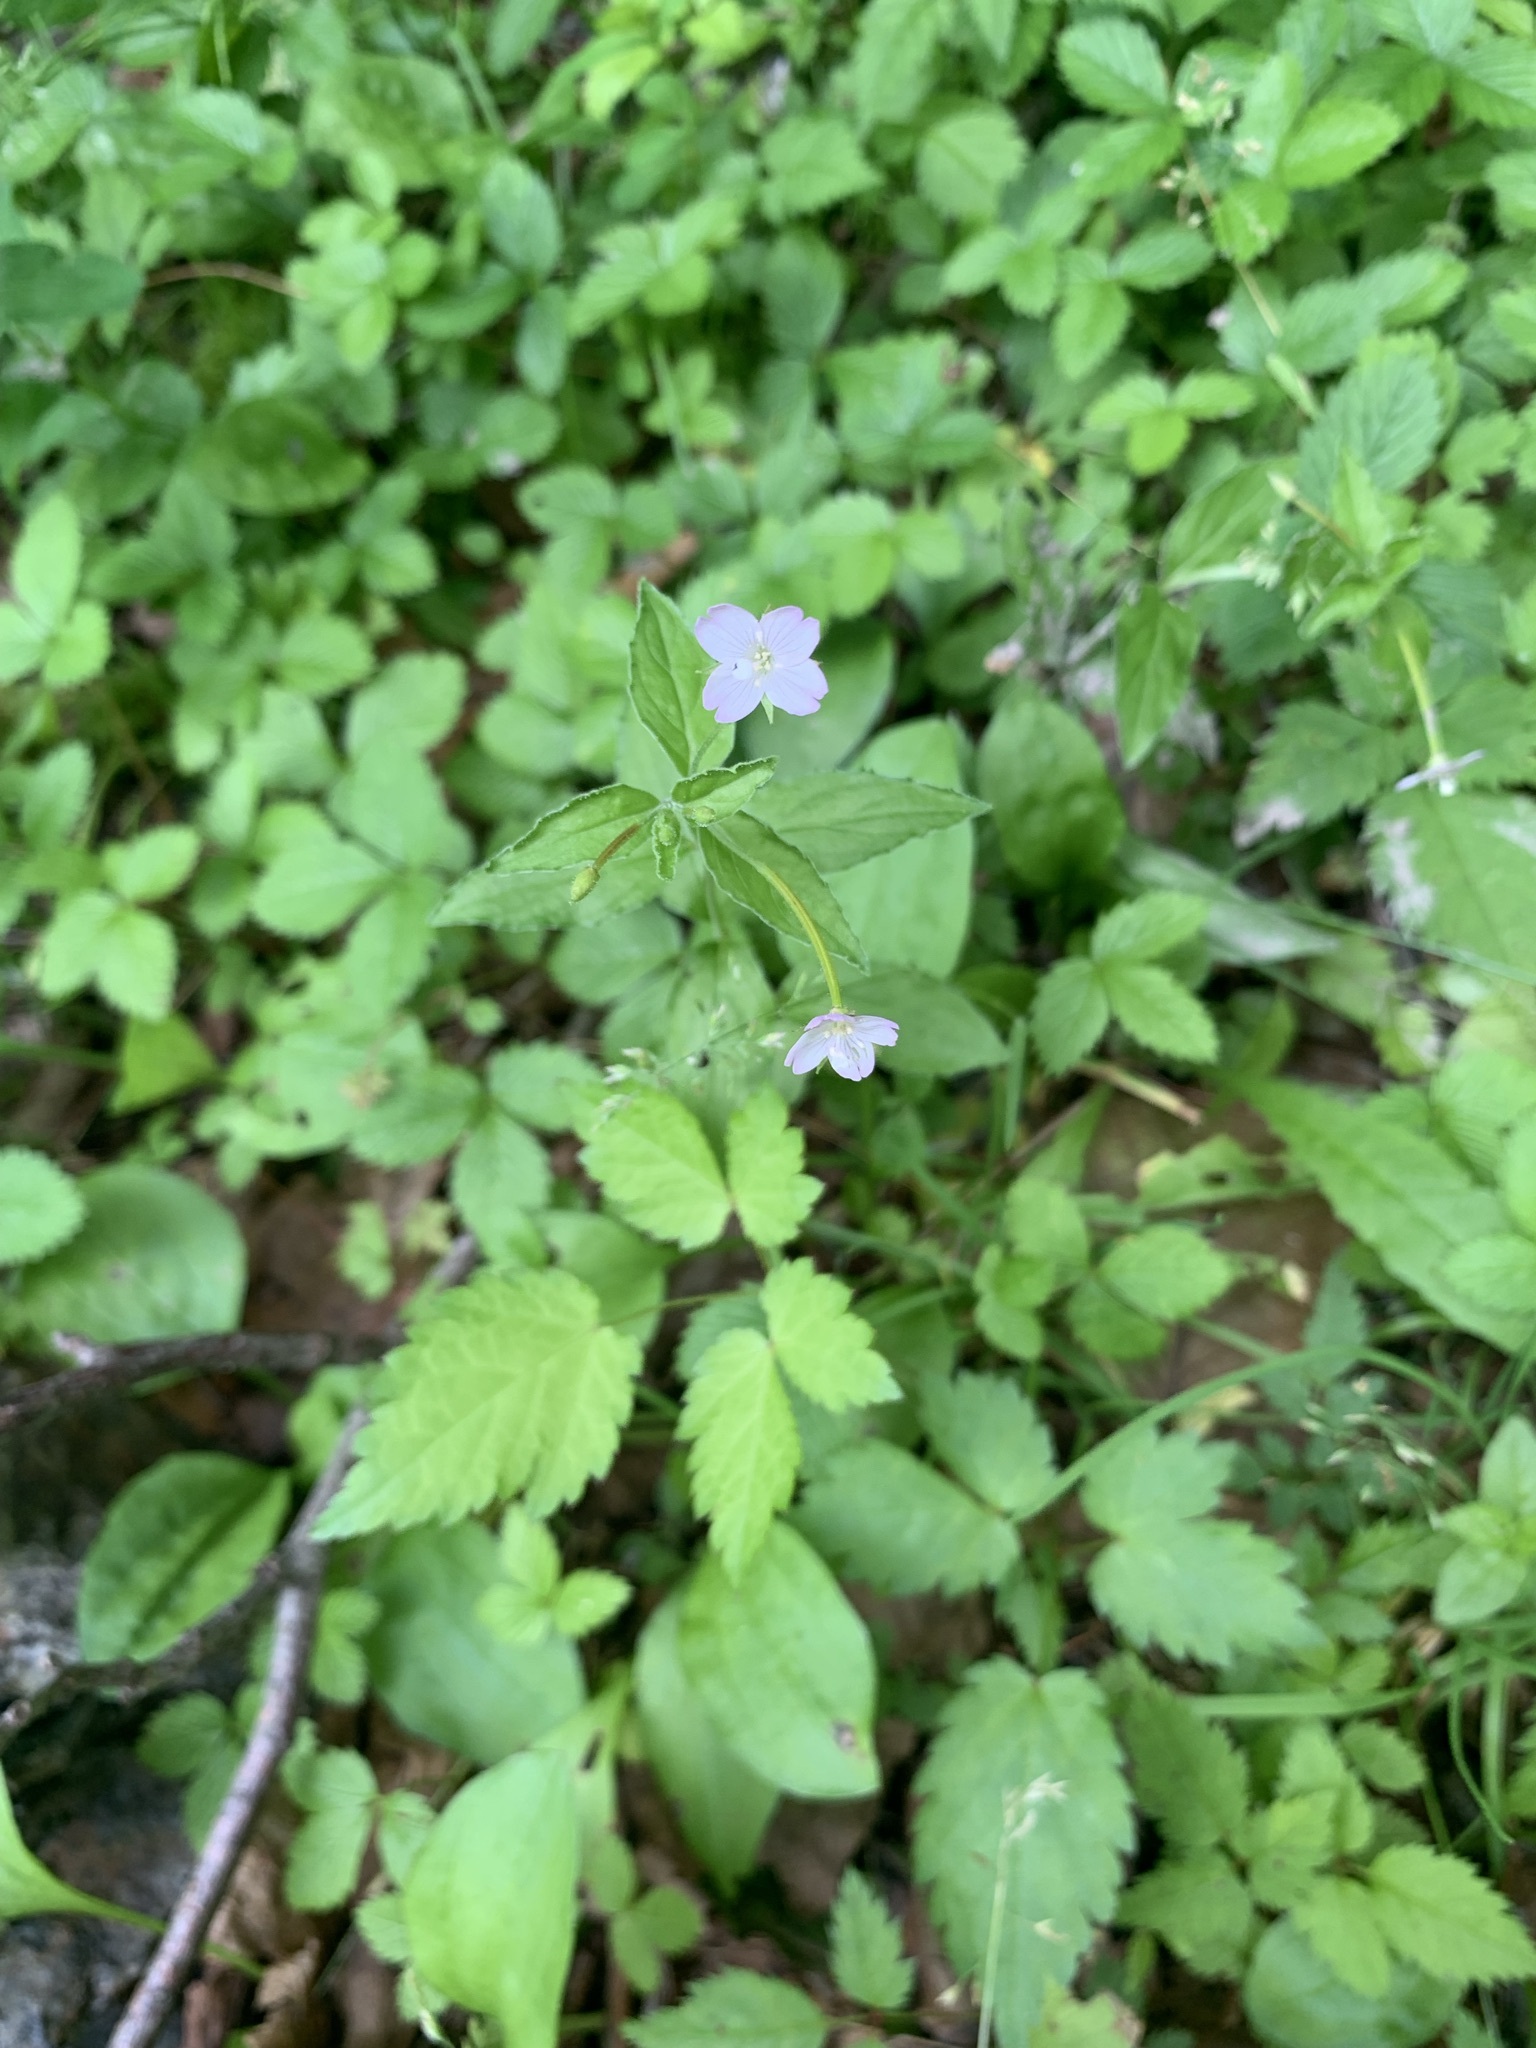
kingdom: Plantae
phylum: Tracheophyta
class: Magnoliopsida
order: Myrtales
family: Onagraceae
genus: Epilobium
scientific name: Epilobium amurense
